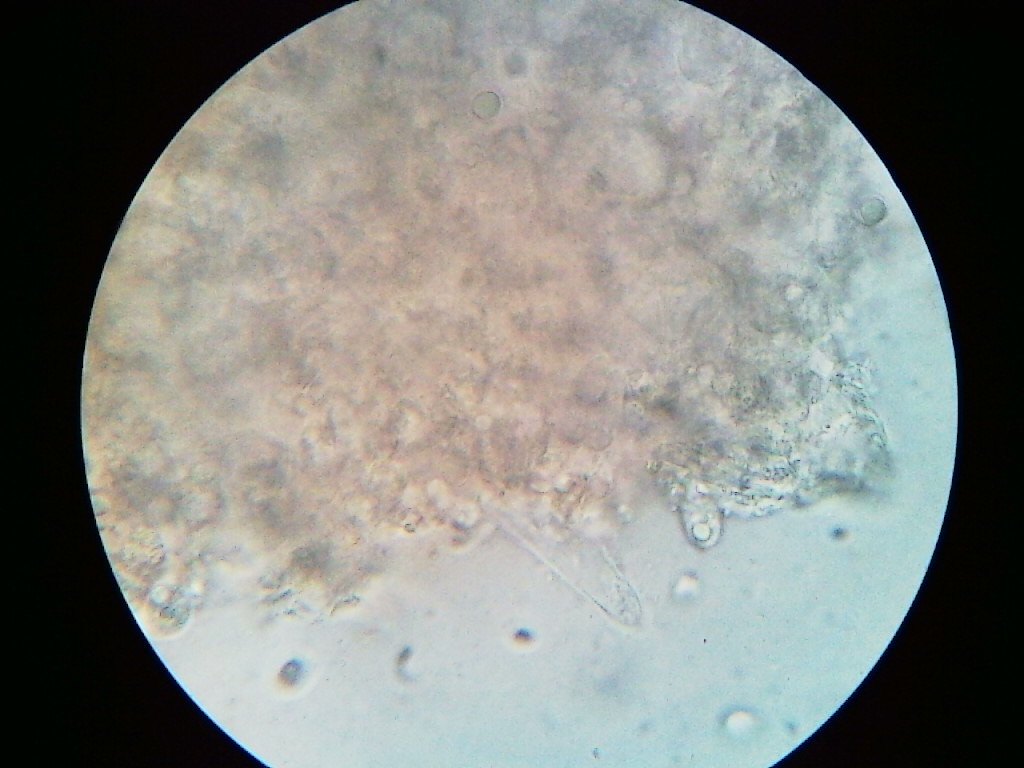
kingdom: Fungi
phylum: Basidiomycota
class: Agaricomycetes
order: Agaricales
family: Mycenaceae
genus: Mycena
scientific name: Mycena niveipes
